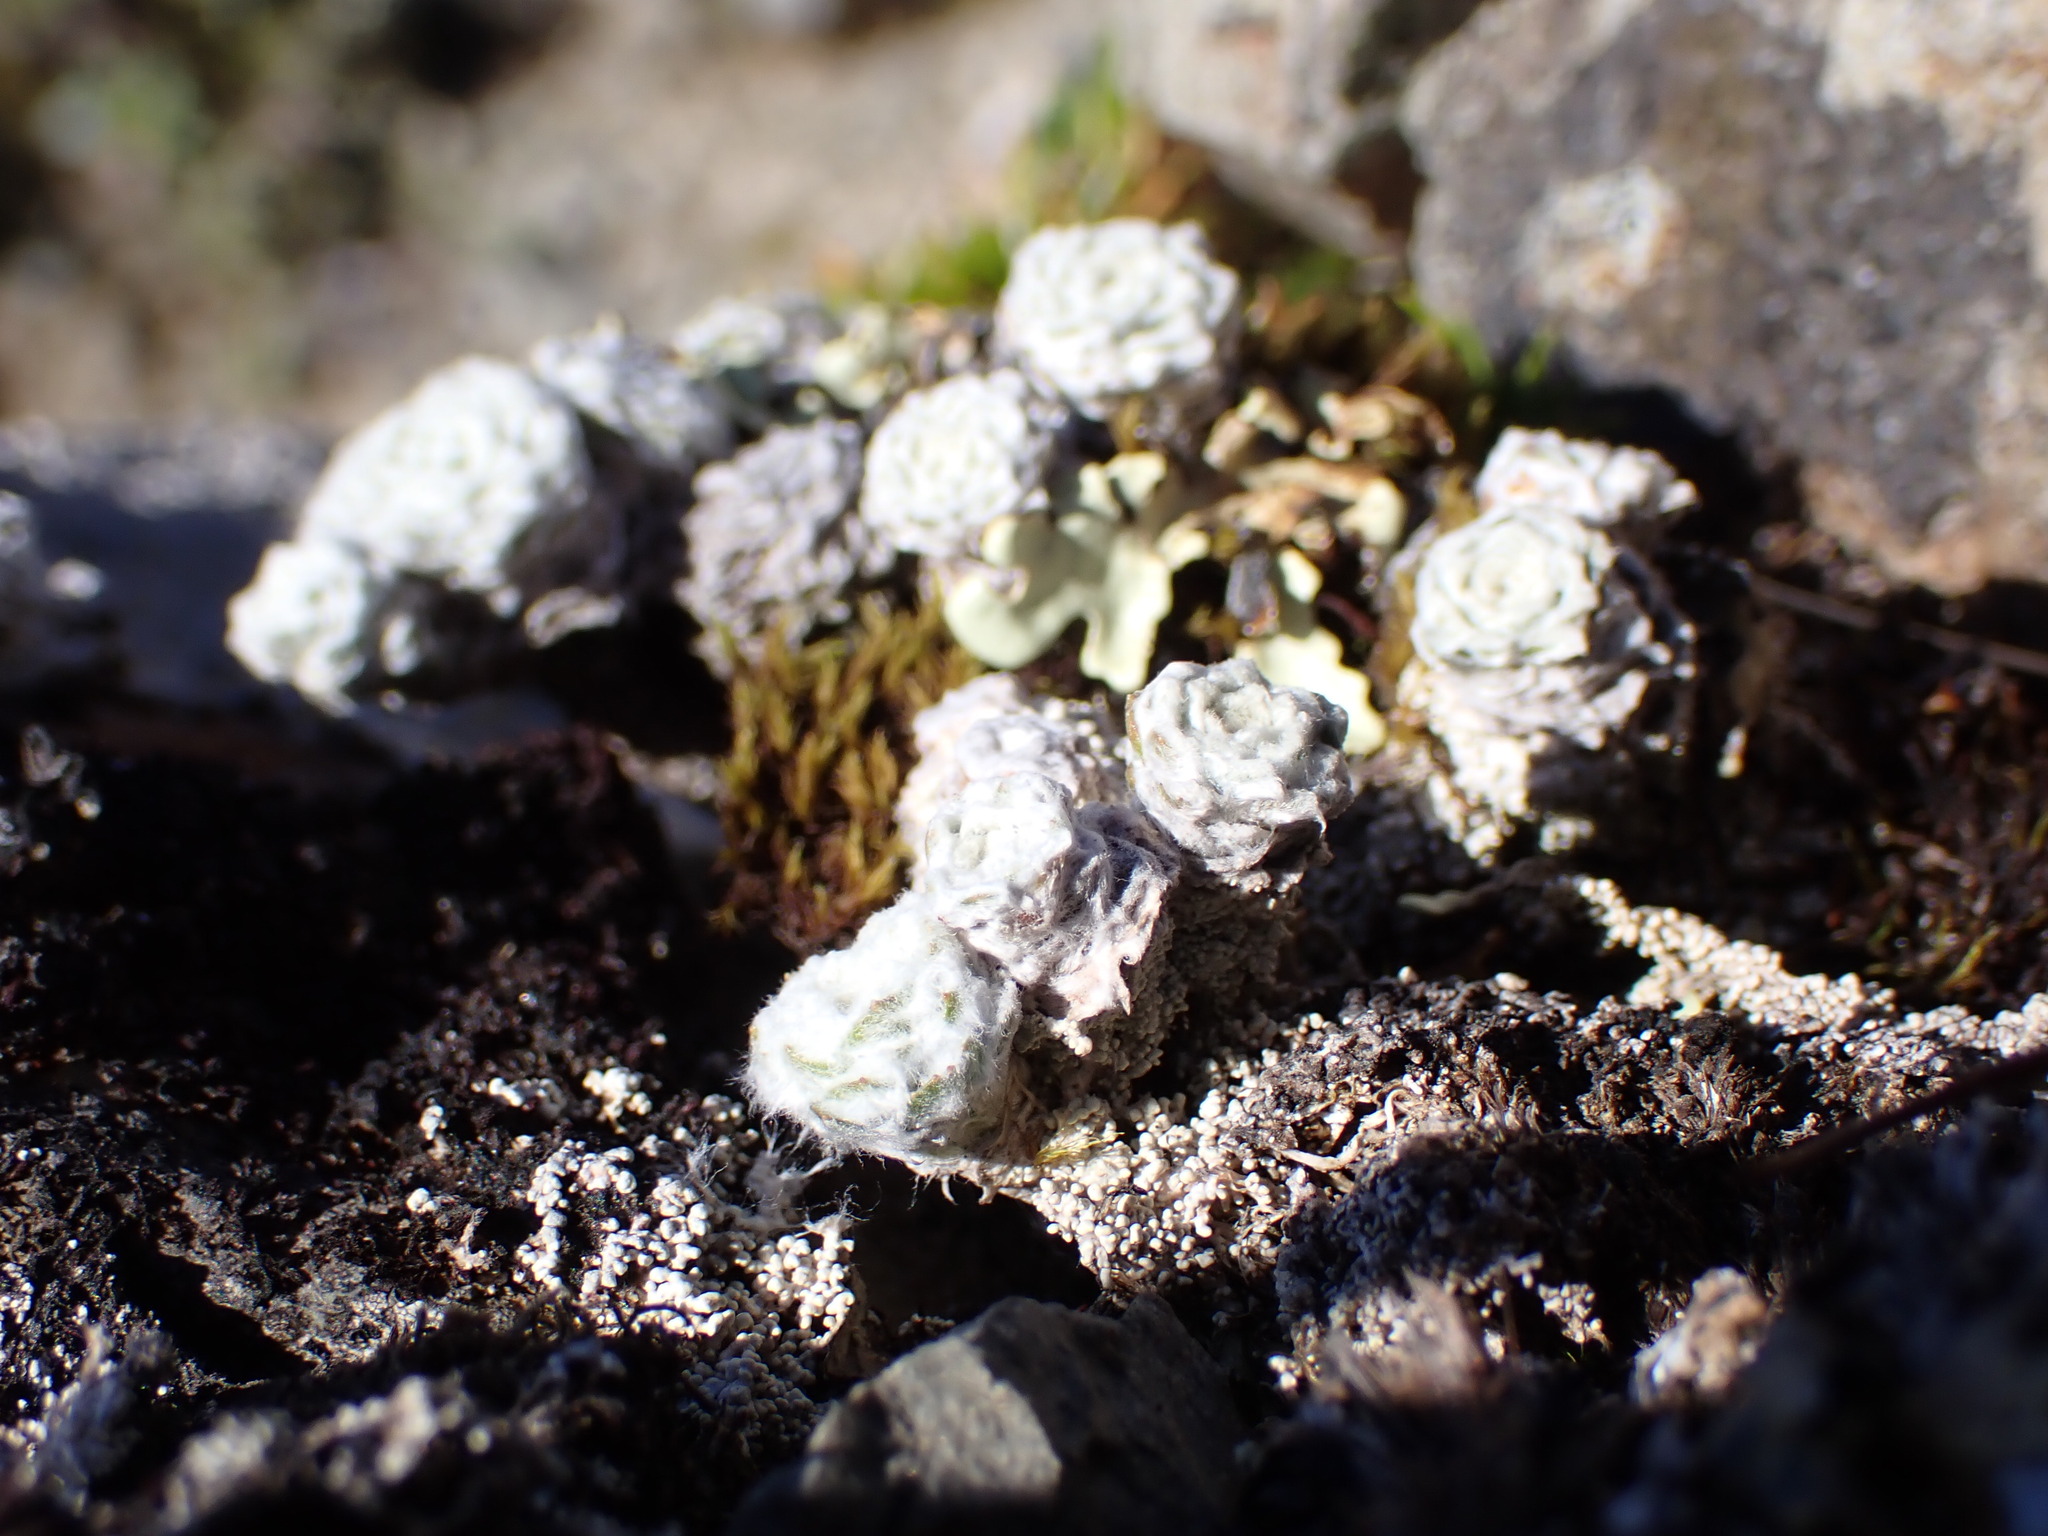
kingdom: Plantae
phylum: Tracheophyta
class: Magnoliopsida
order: Asterales
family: Asteraceae
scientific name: Asteraceae
